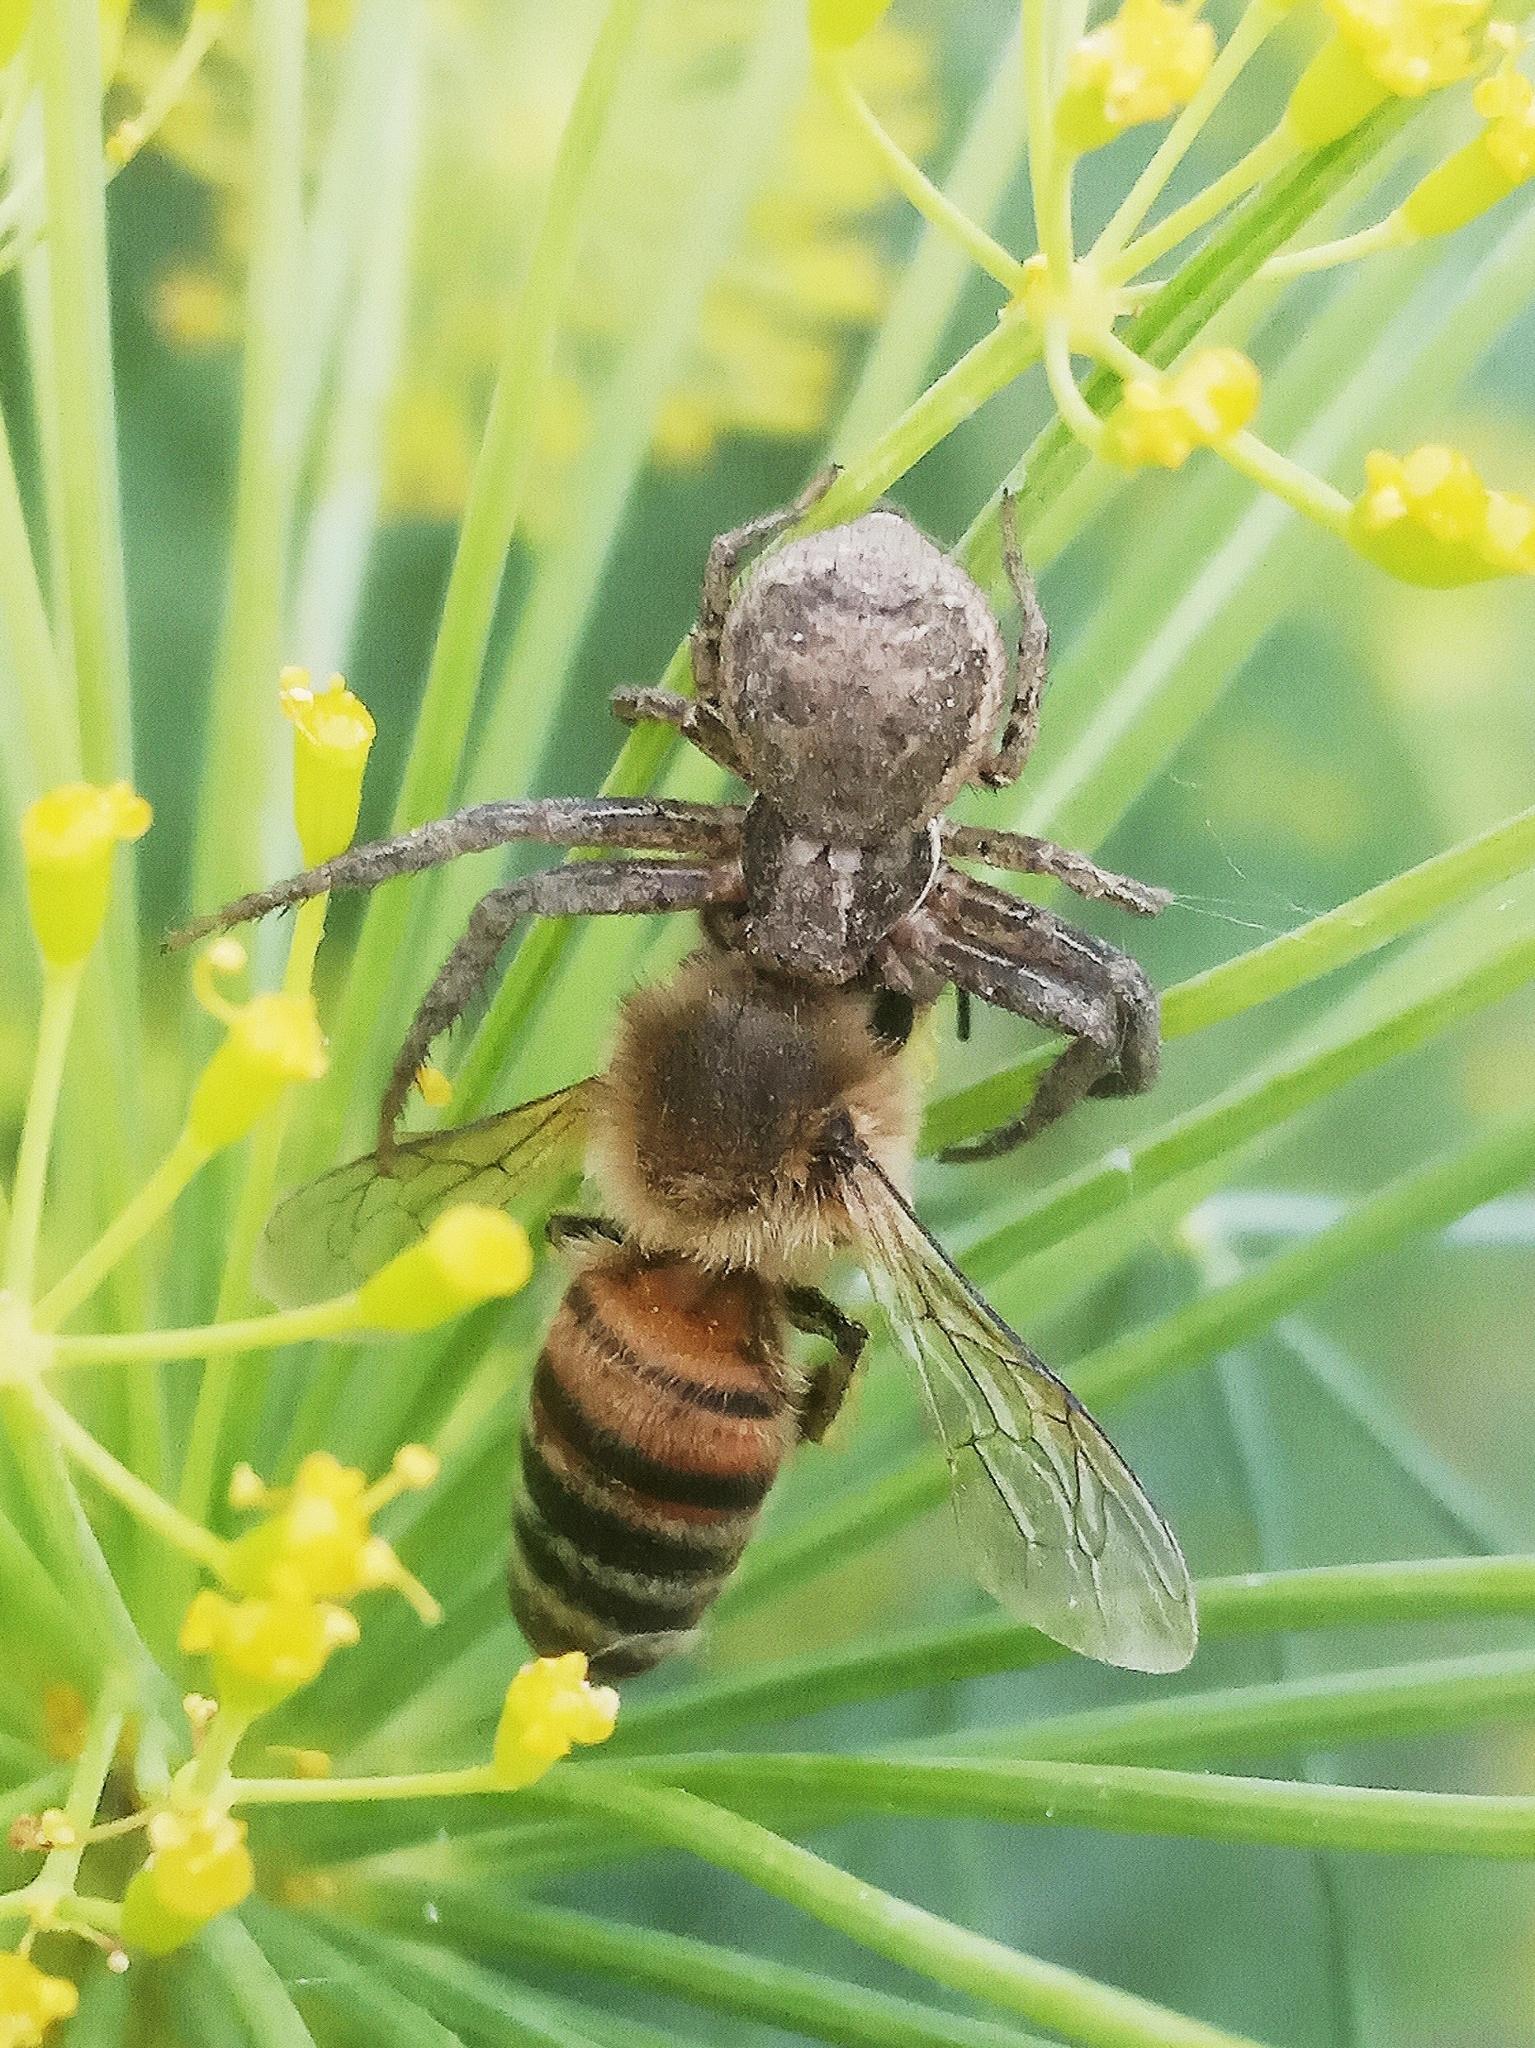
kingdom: Animalia
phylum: Arthropoda
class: Arachnida
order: Araneae
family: Thomisidae
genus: Xysticus
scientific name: Xysticus
